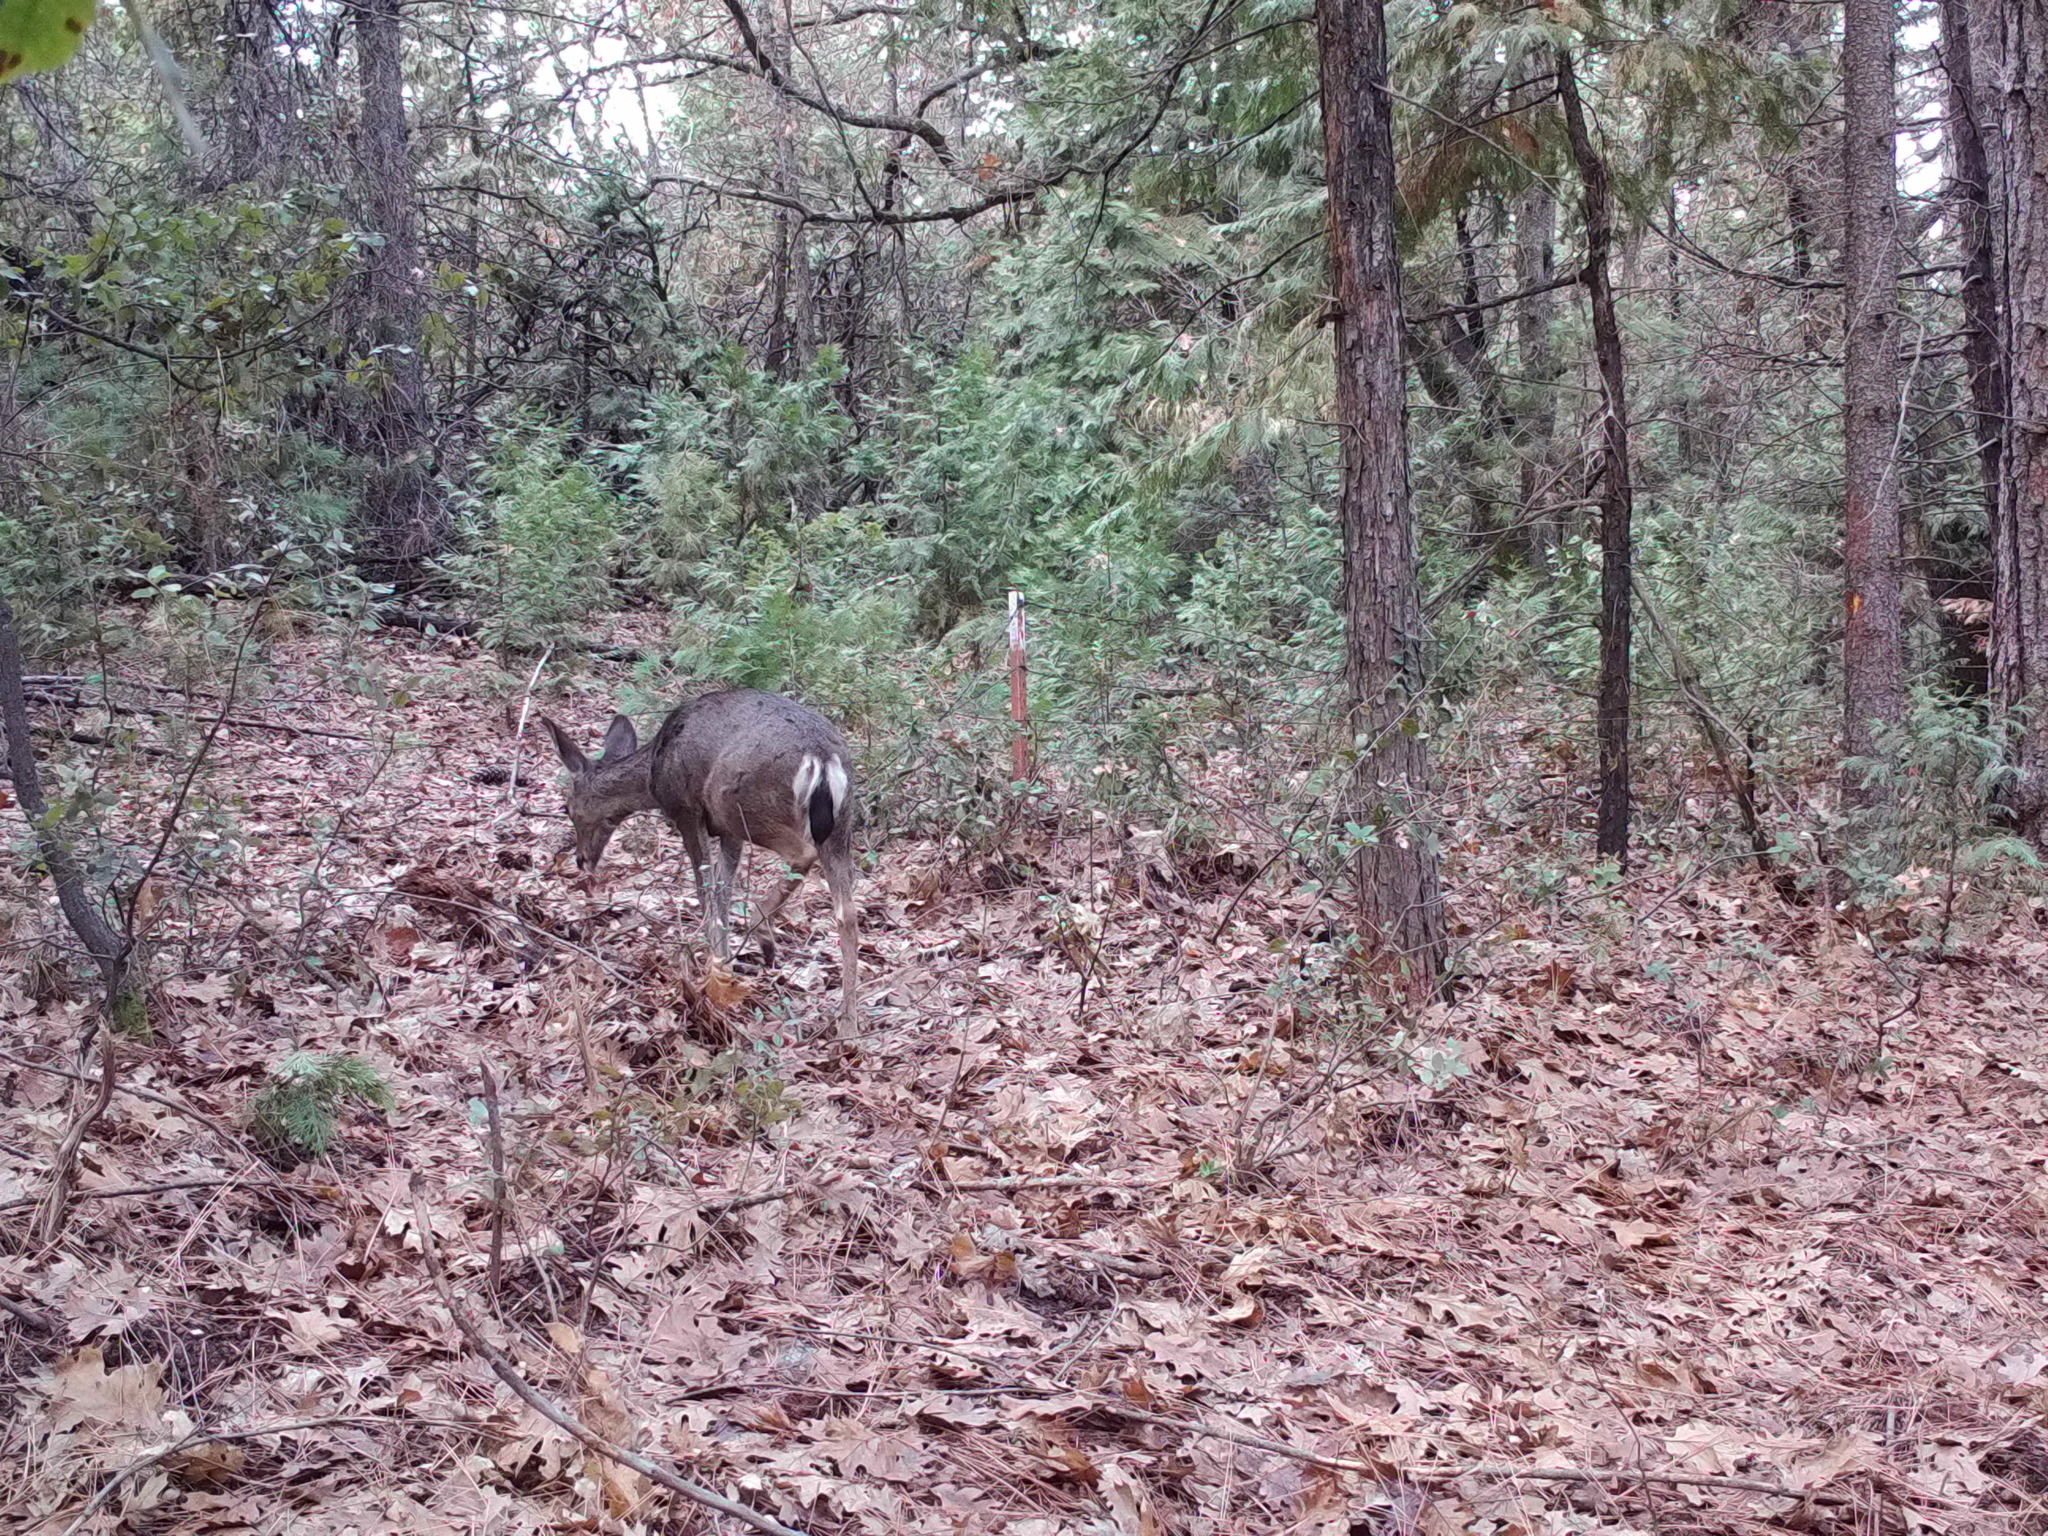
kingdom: Animalia
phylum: Chordata
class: Mammalia
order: Artiodactyla
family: Cervidae
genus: Odocoileus
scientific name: Odocoileus hemionus
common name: Mule deer
